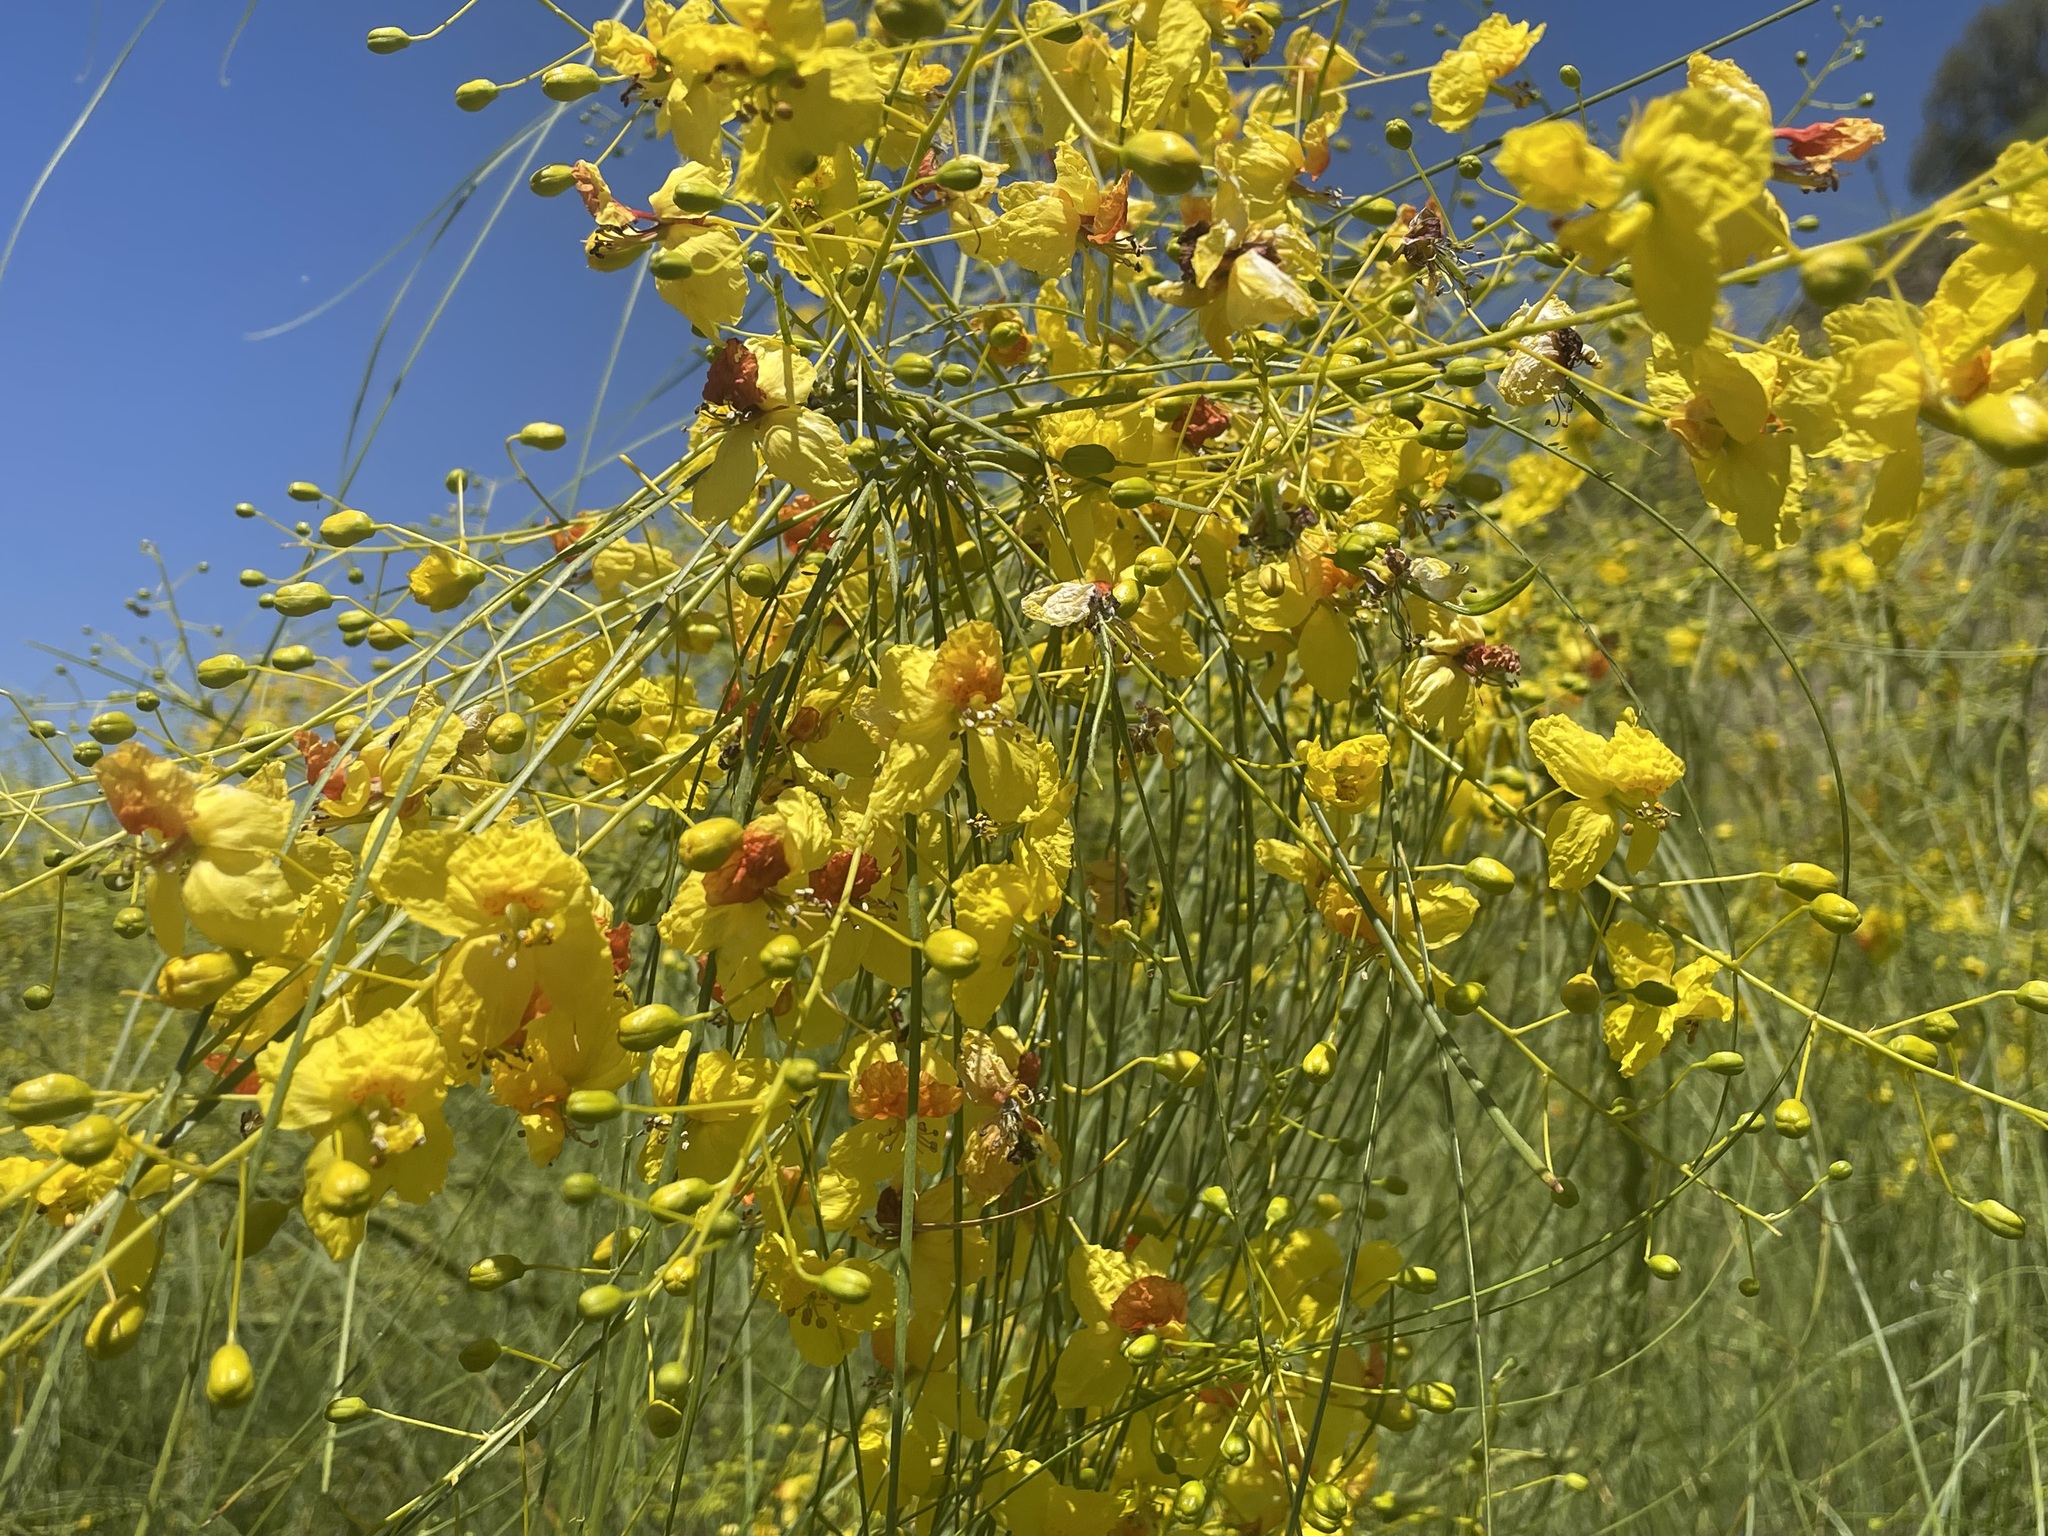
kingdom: Plantae
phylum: Tracheophyta
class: Magnoliopsida
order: Fabales
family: Fabaceae
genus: Parkinsonia
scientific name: Parkinsonia aculeata
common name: Jerusalem thorn
